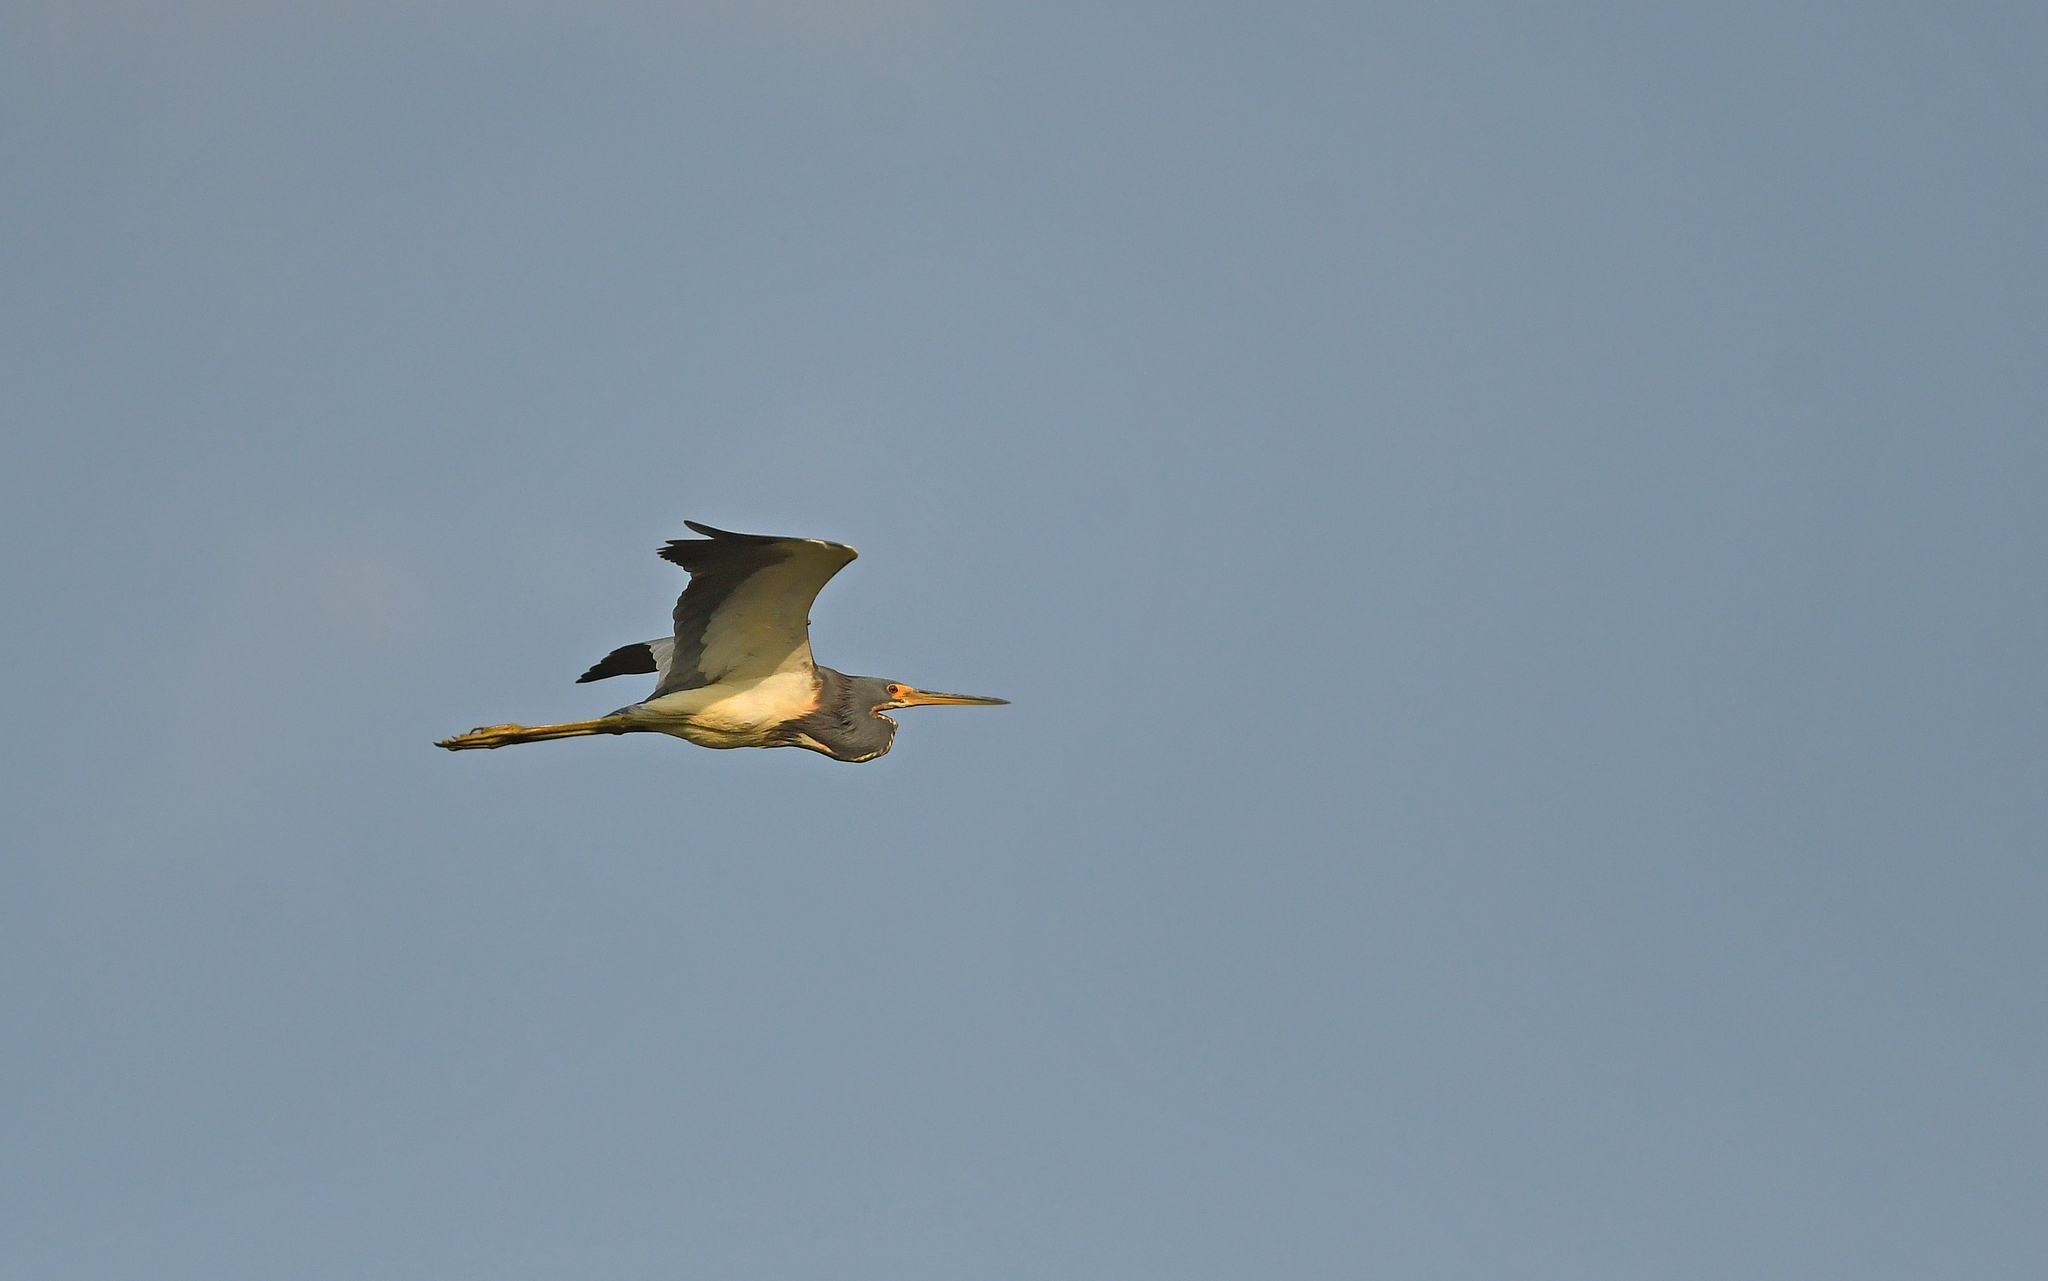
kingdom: Animalia
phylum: Chordata
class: Aves
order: Pelecaniformes
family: Ardeidae
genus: Egretta
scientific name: Egretta tricolor
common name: Tricolored heron
